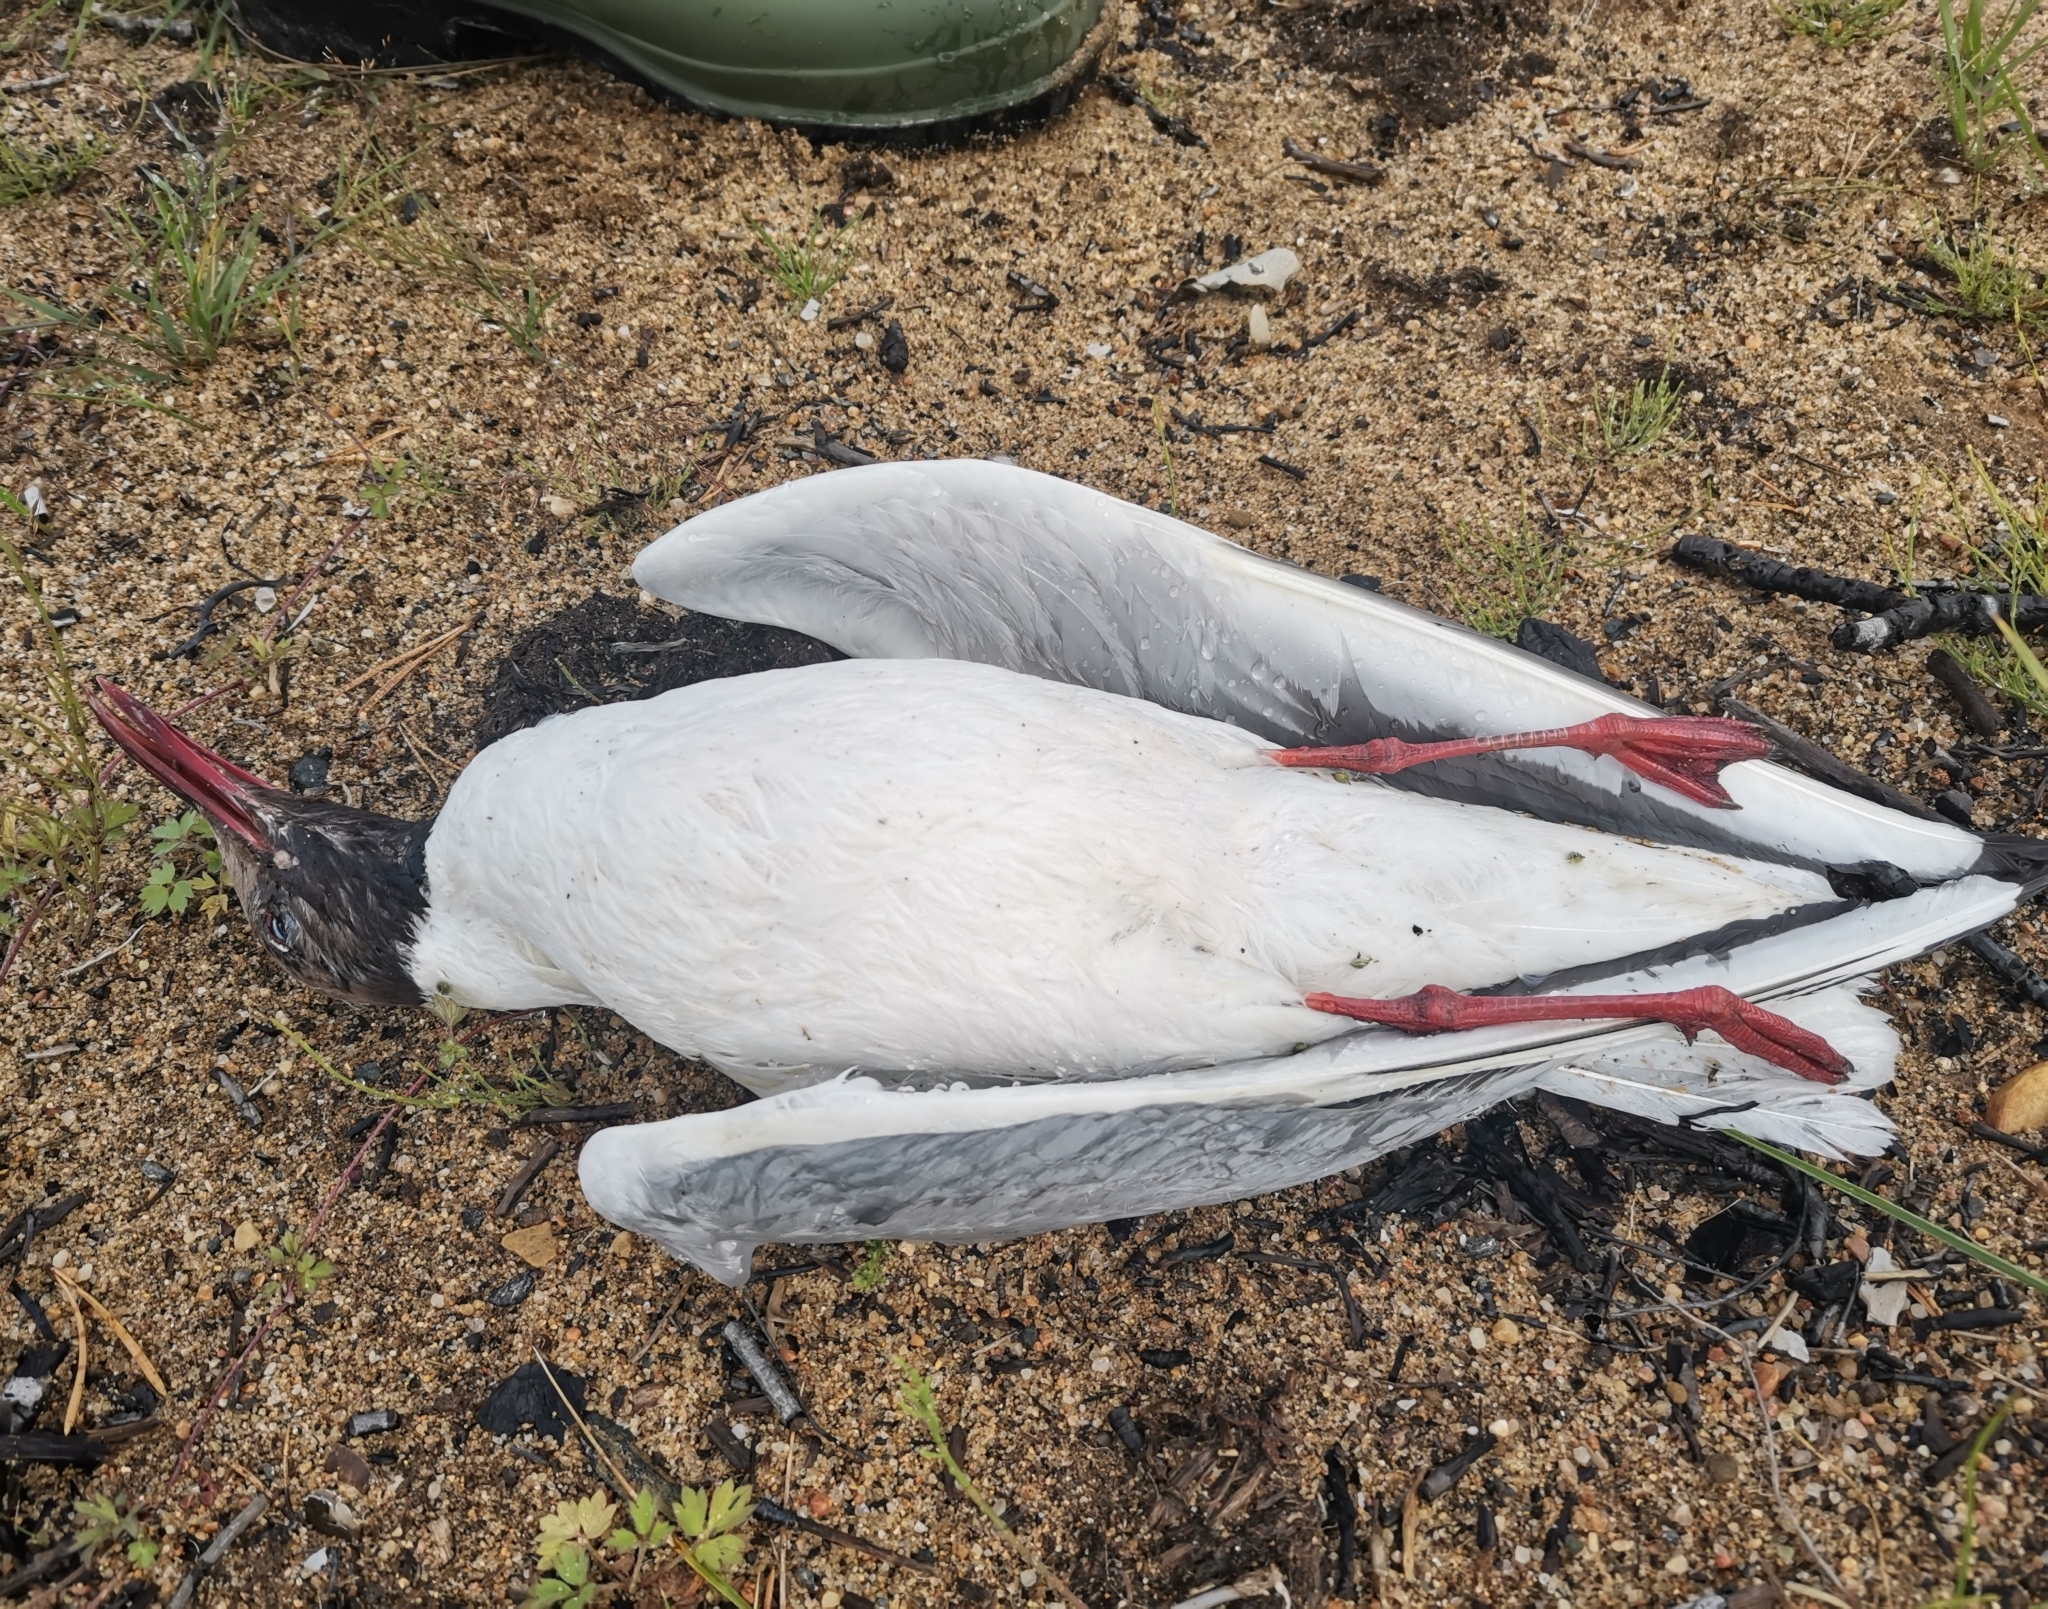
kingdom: Animalia
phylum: Chordata
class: Aves
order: Charadriiformes
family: Laridae
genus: Chroicocephalus
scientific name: Chroicocephalus ridibundus
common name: Black-headed gull
